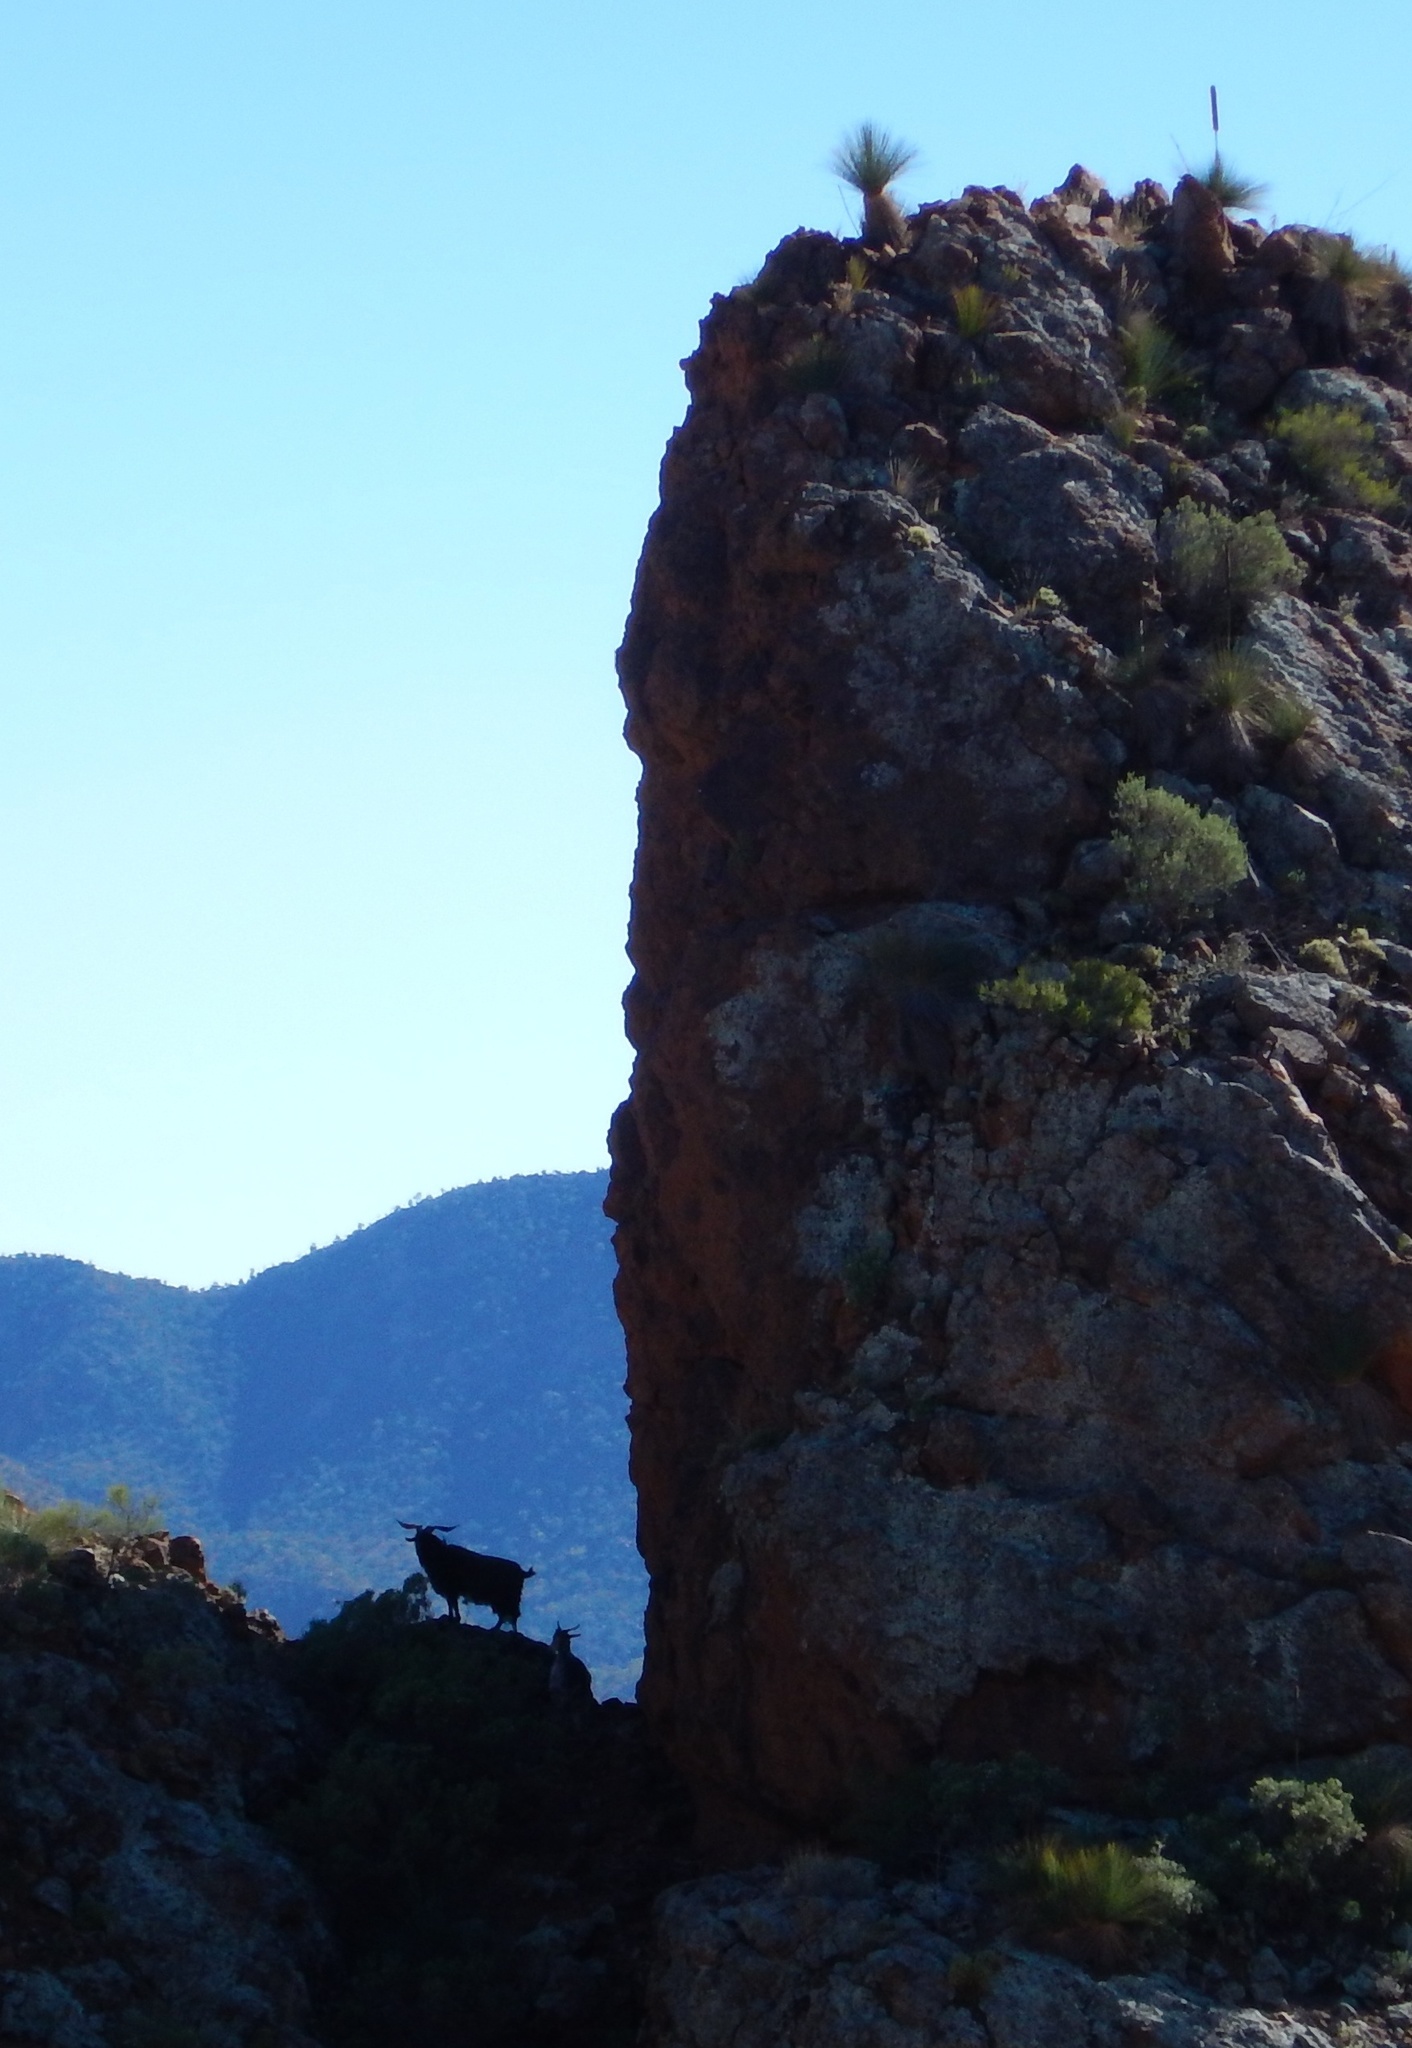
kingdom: Animalia
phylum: Chordata
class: Mammalia
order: Artiodactyla
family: Bovidae
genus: Capra
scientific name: Capra hircus
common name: Domestic goat
